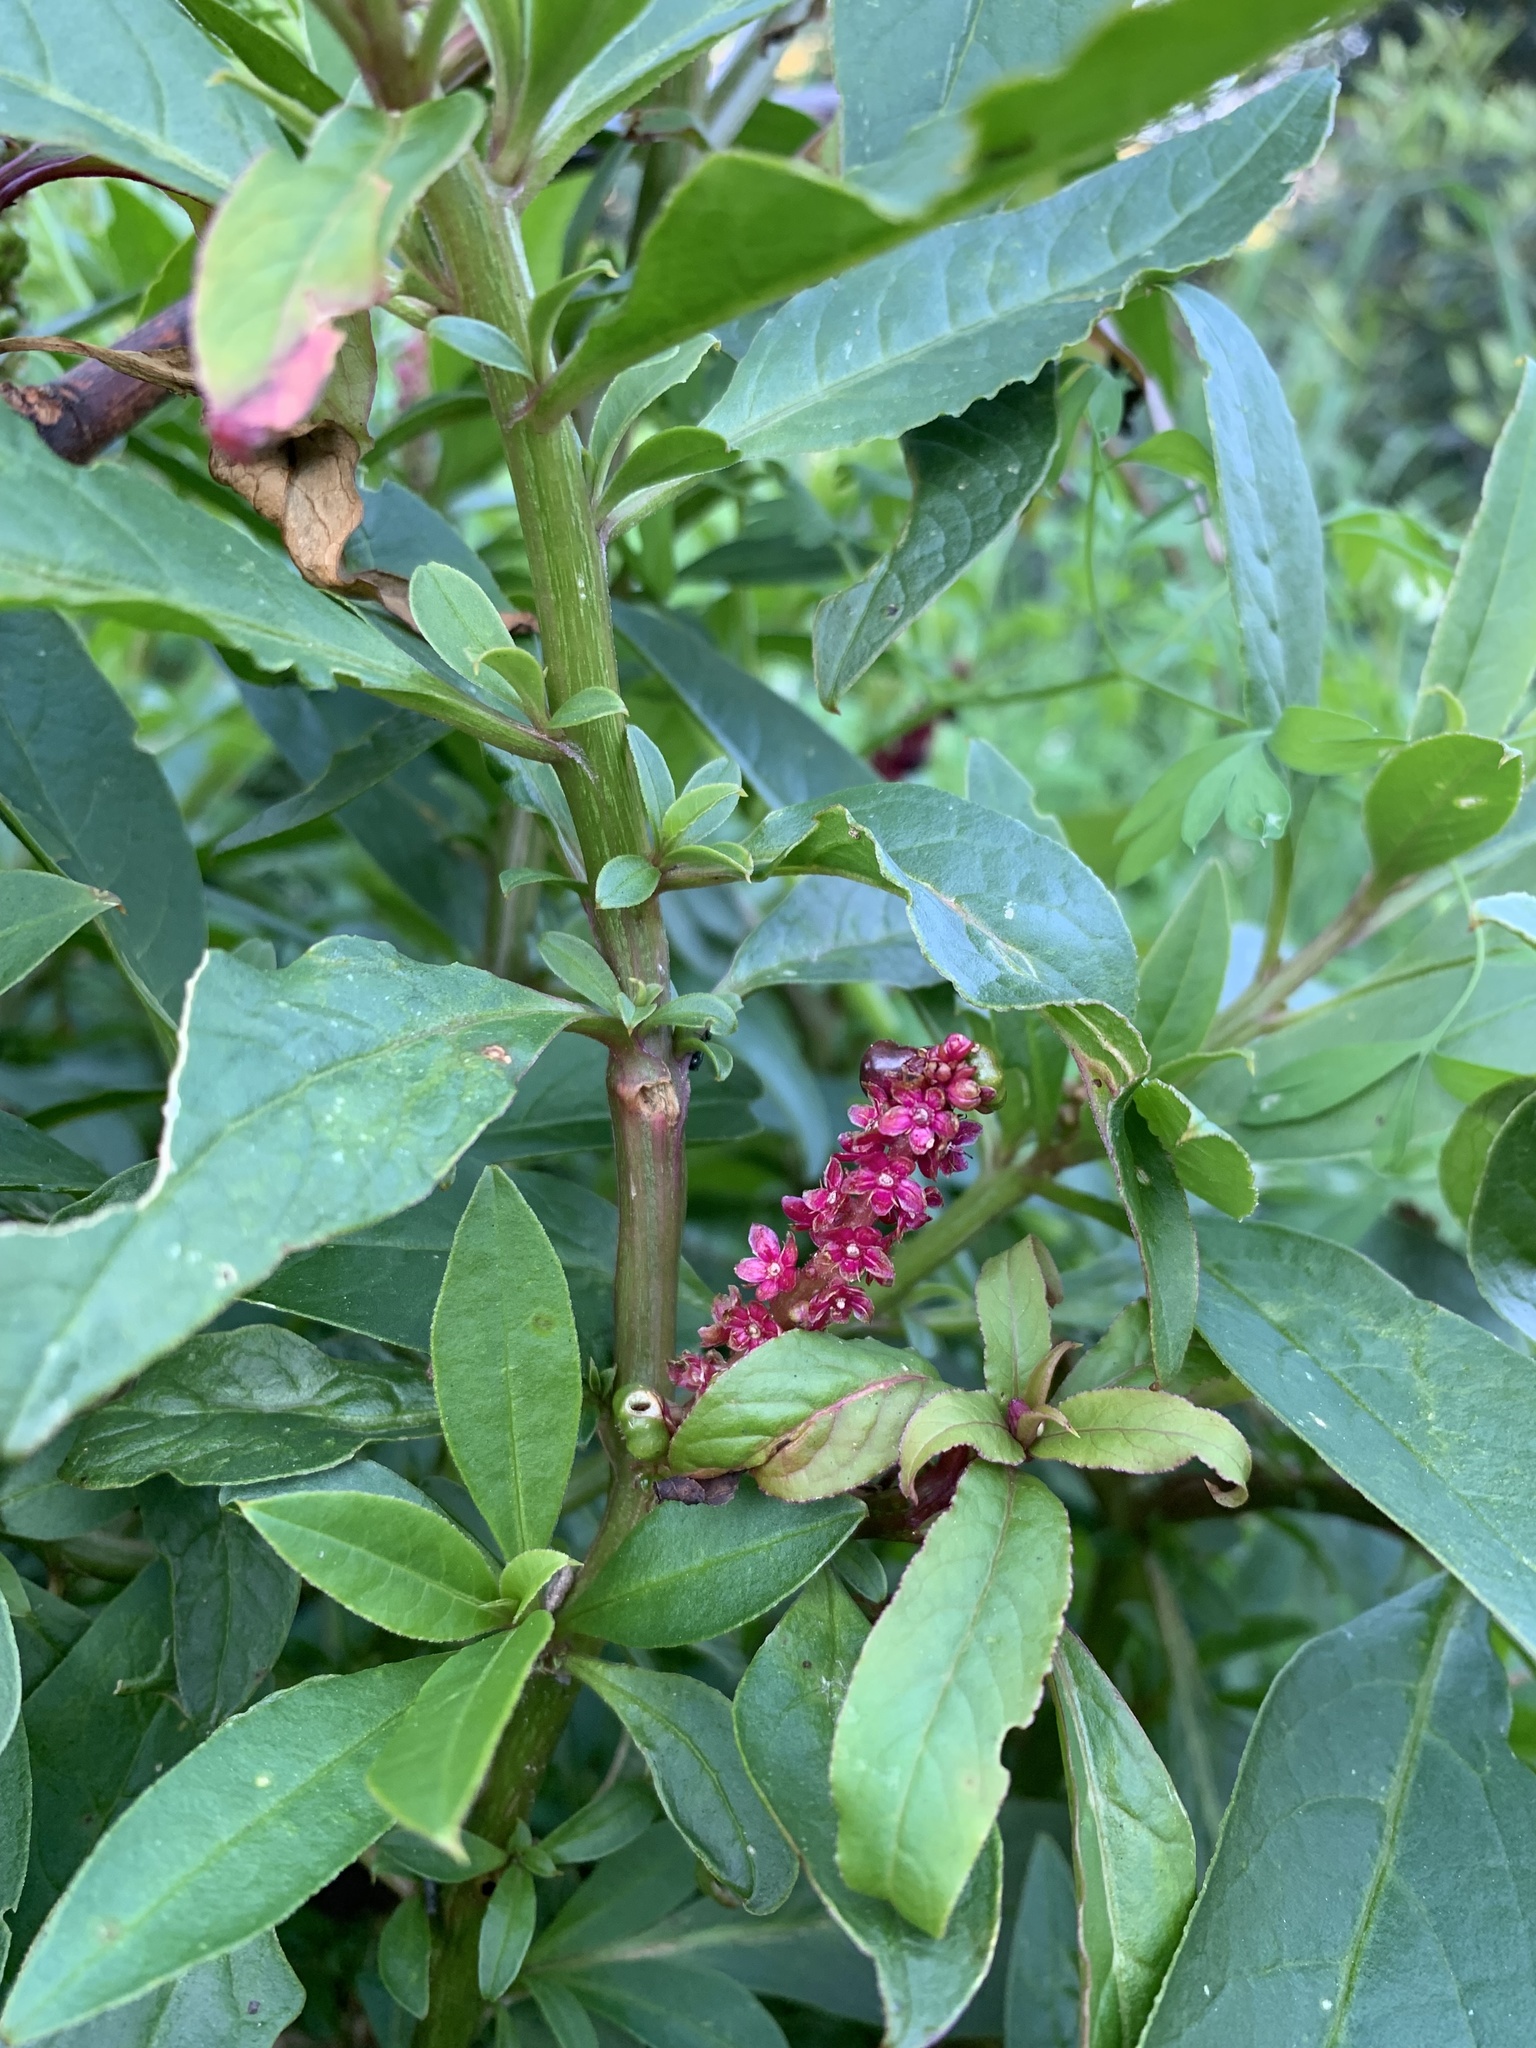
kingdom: Plantae
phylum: Tracheophyta
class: Magnoliopsida
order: Caryophyllales
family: Phytolaccaceae
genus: Phytolacca
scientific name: Phytolacca icosandra
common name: Button pokeweed
